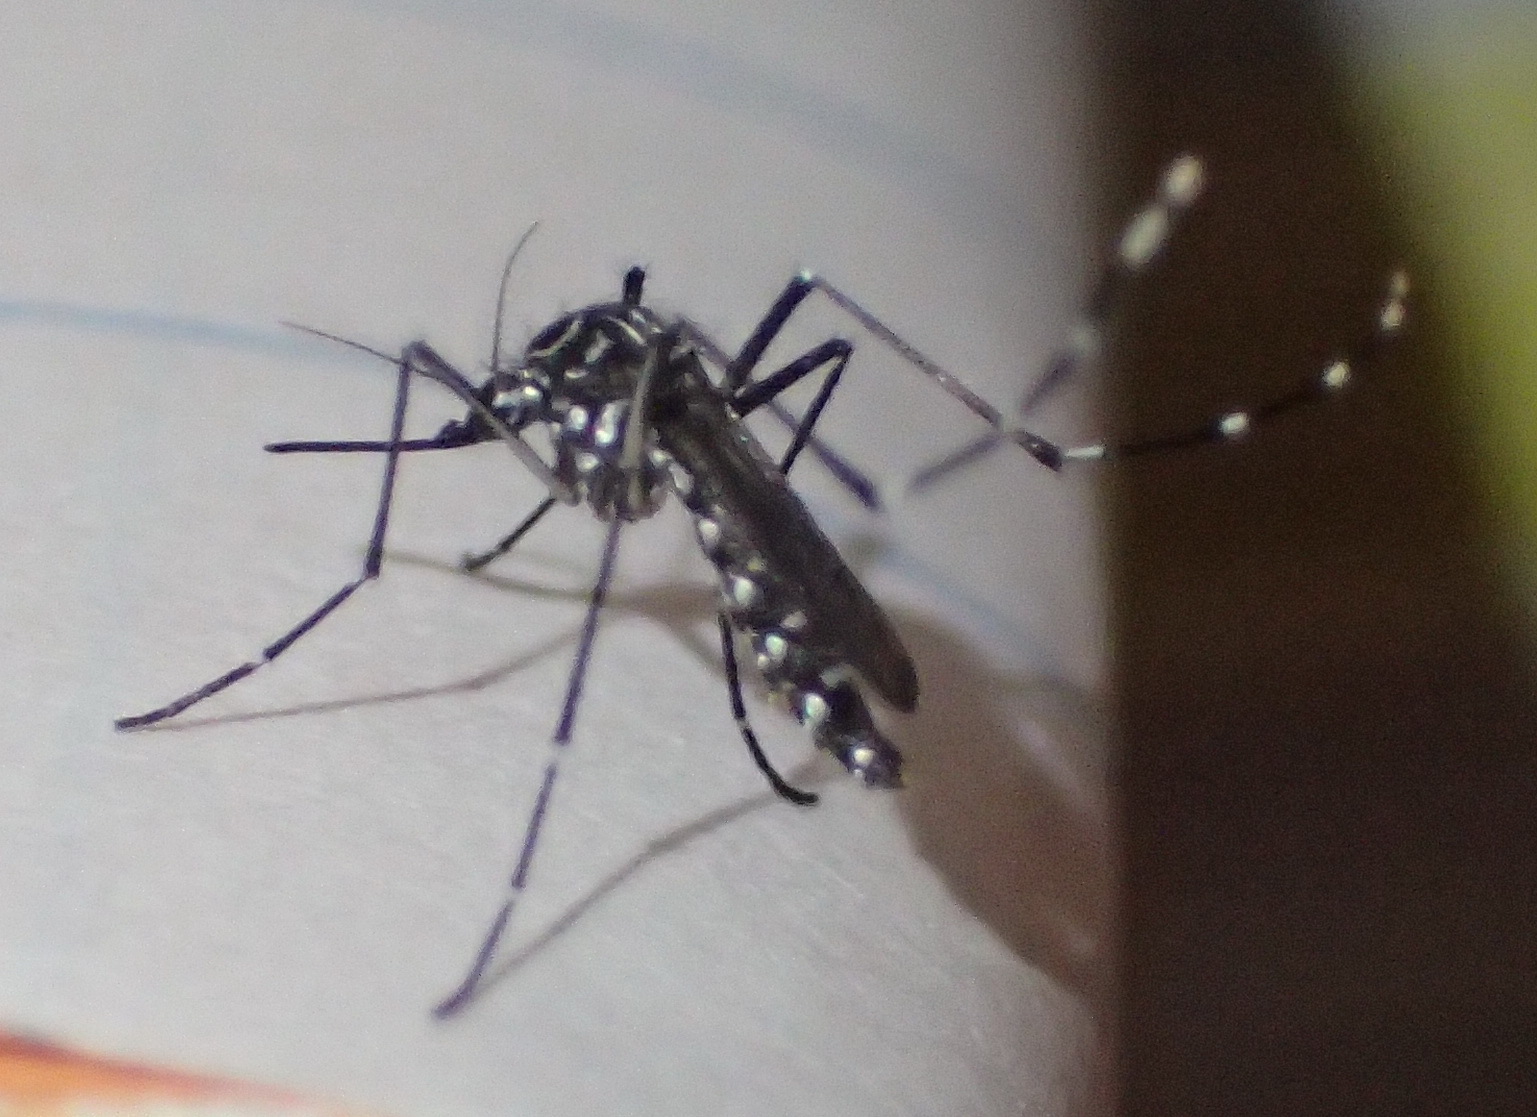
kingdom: Animalia
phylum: Arthropoda
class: Insecta
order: Diptera
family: Culicidae
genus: Aedes
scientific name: Aedes aegypti
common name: Yellow fever mosquito
